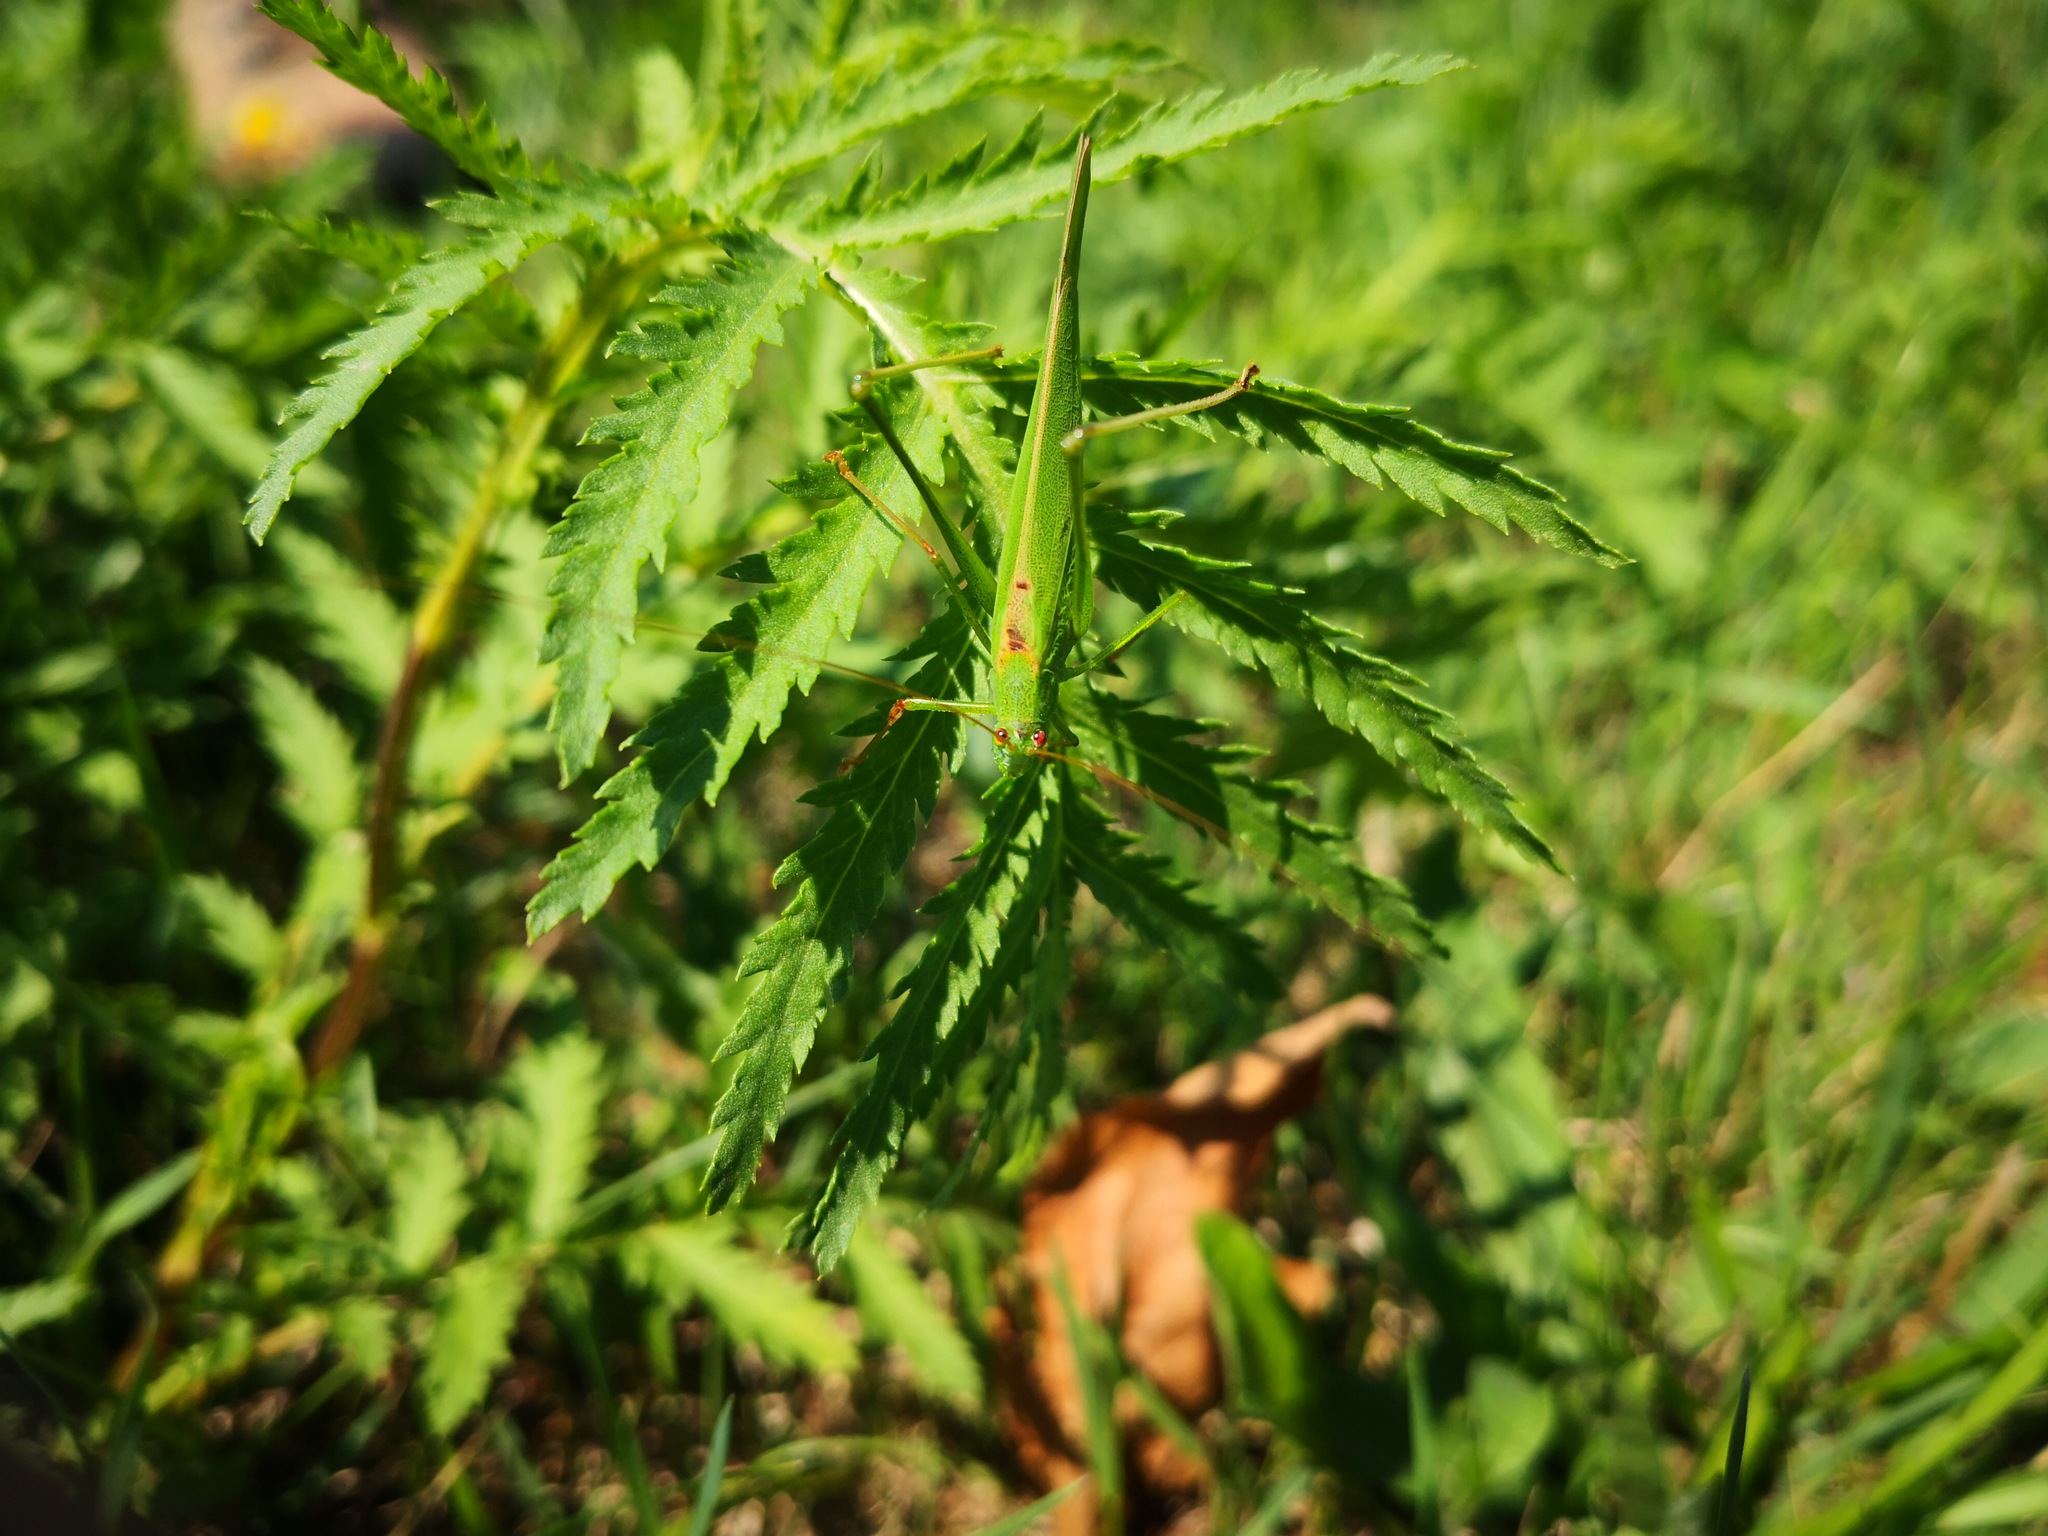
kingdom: Animalia
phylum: Arthropoda
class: Insecta
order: Orthoptera
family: Tettigoniidae
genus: Phaneroptera
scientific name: Phaneroptera falcata
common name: Sickle-bearing bush-cricket
